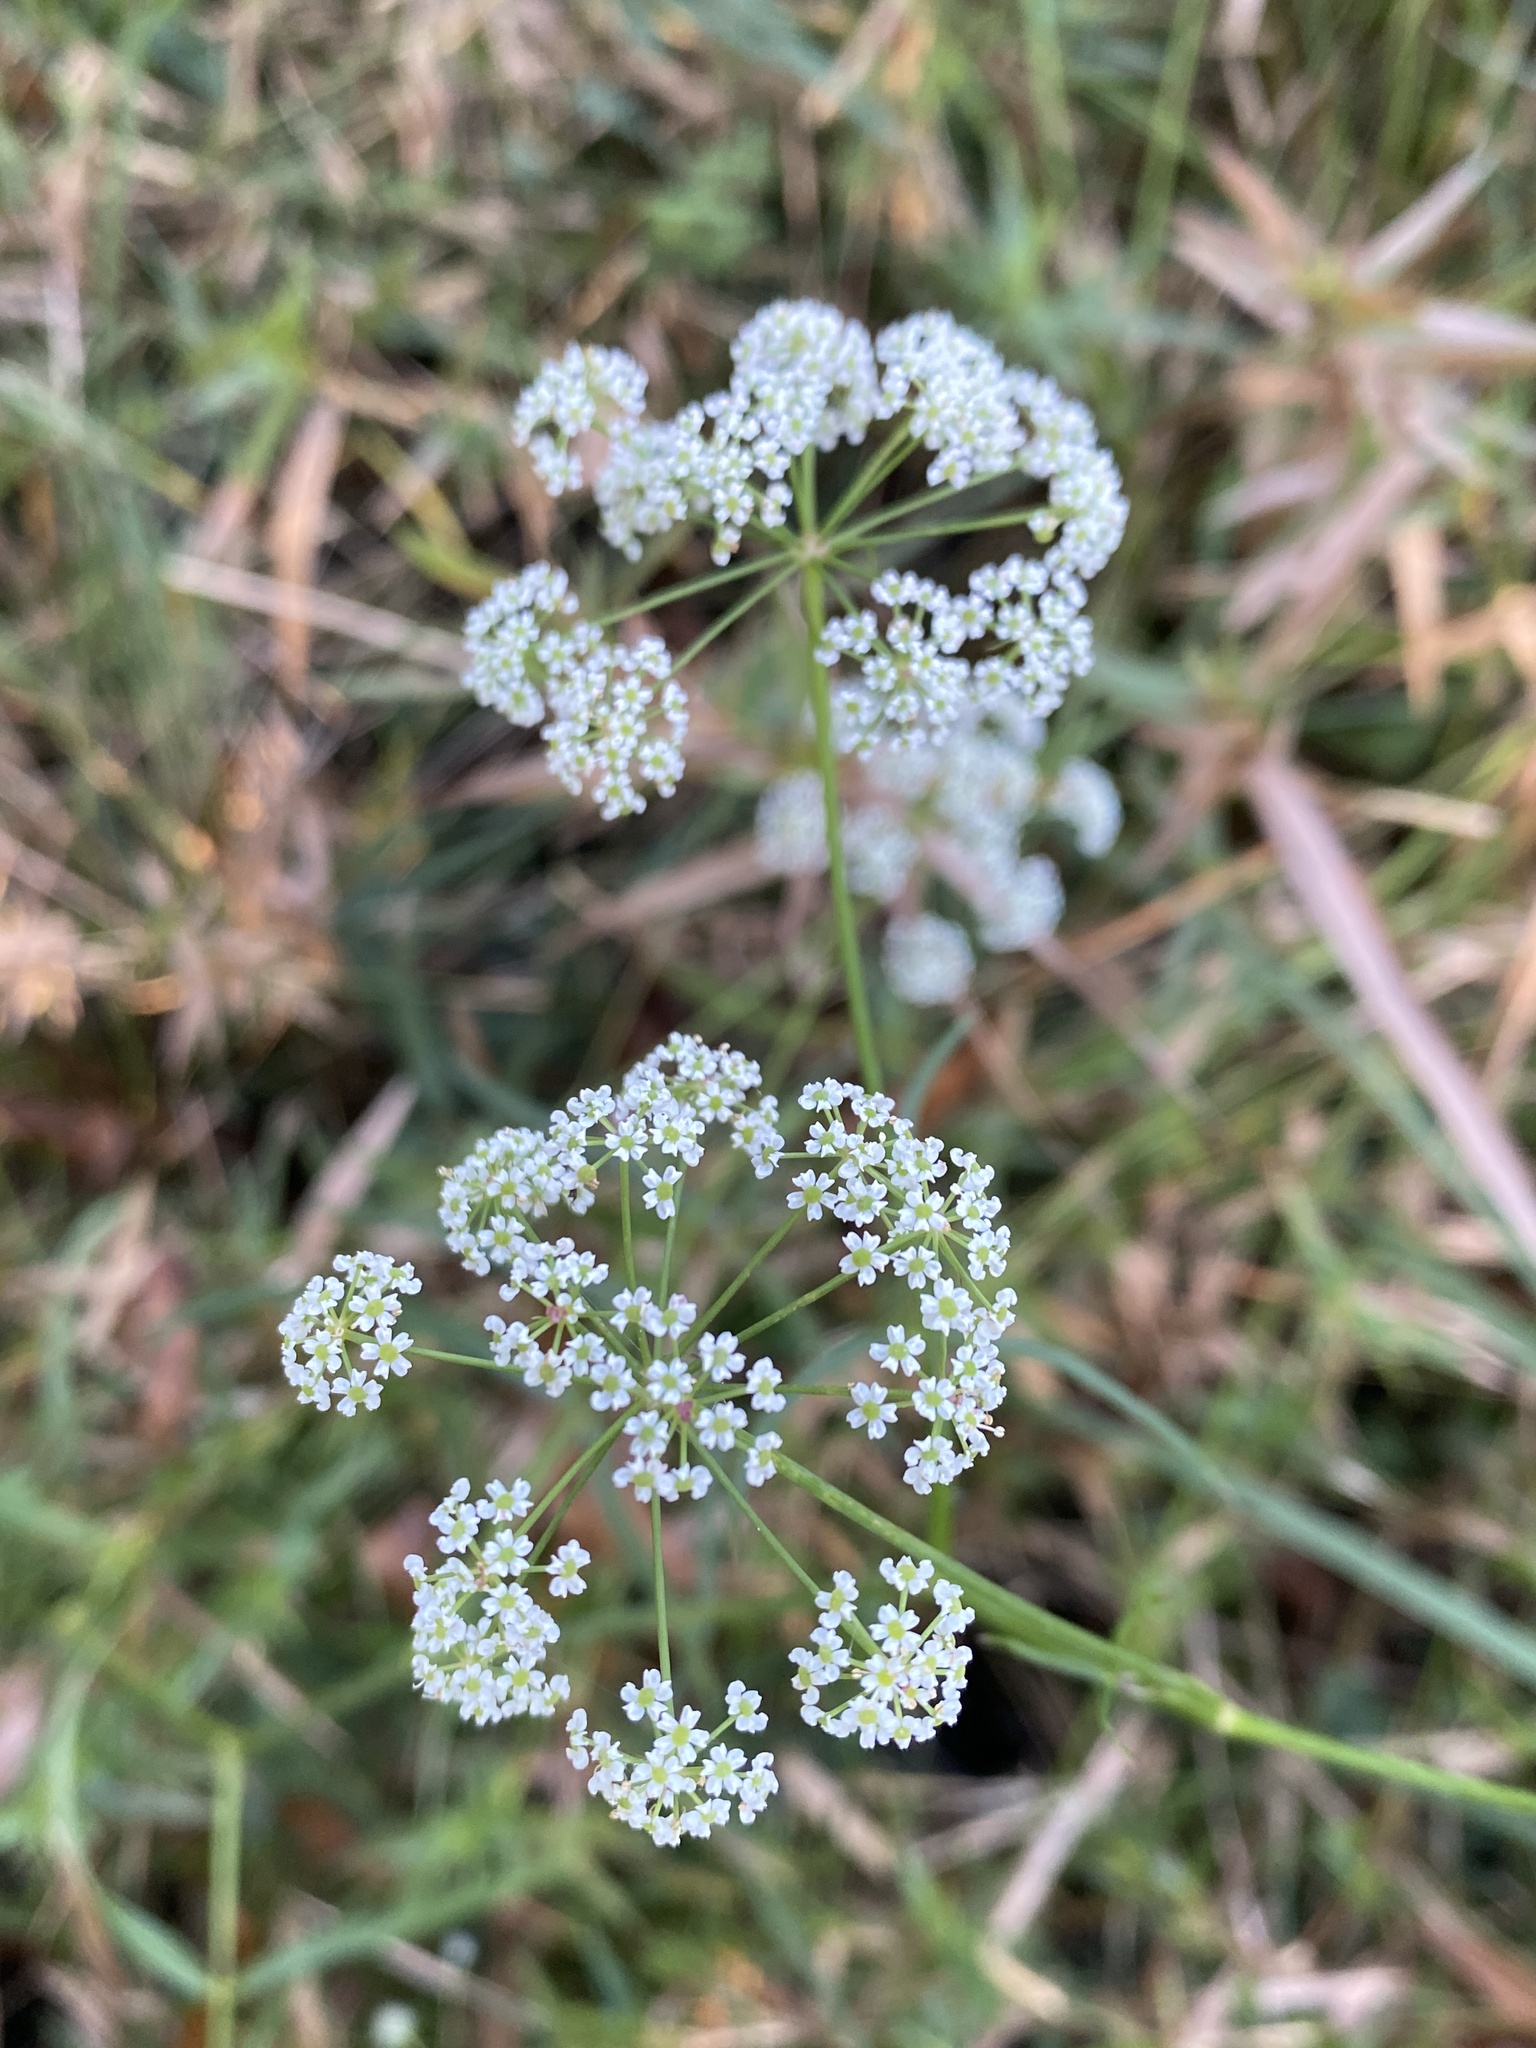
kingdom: Plantae
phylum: Tracheophyta
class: Magnoliopsida
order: Apiales
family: Apiaceae
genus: Oxypolis
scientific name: Oxypolis rigidior
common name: Cowbane
